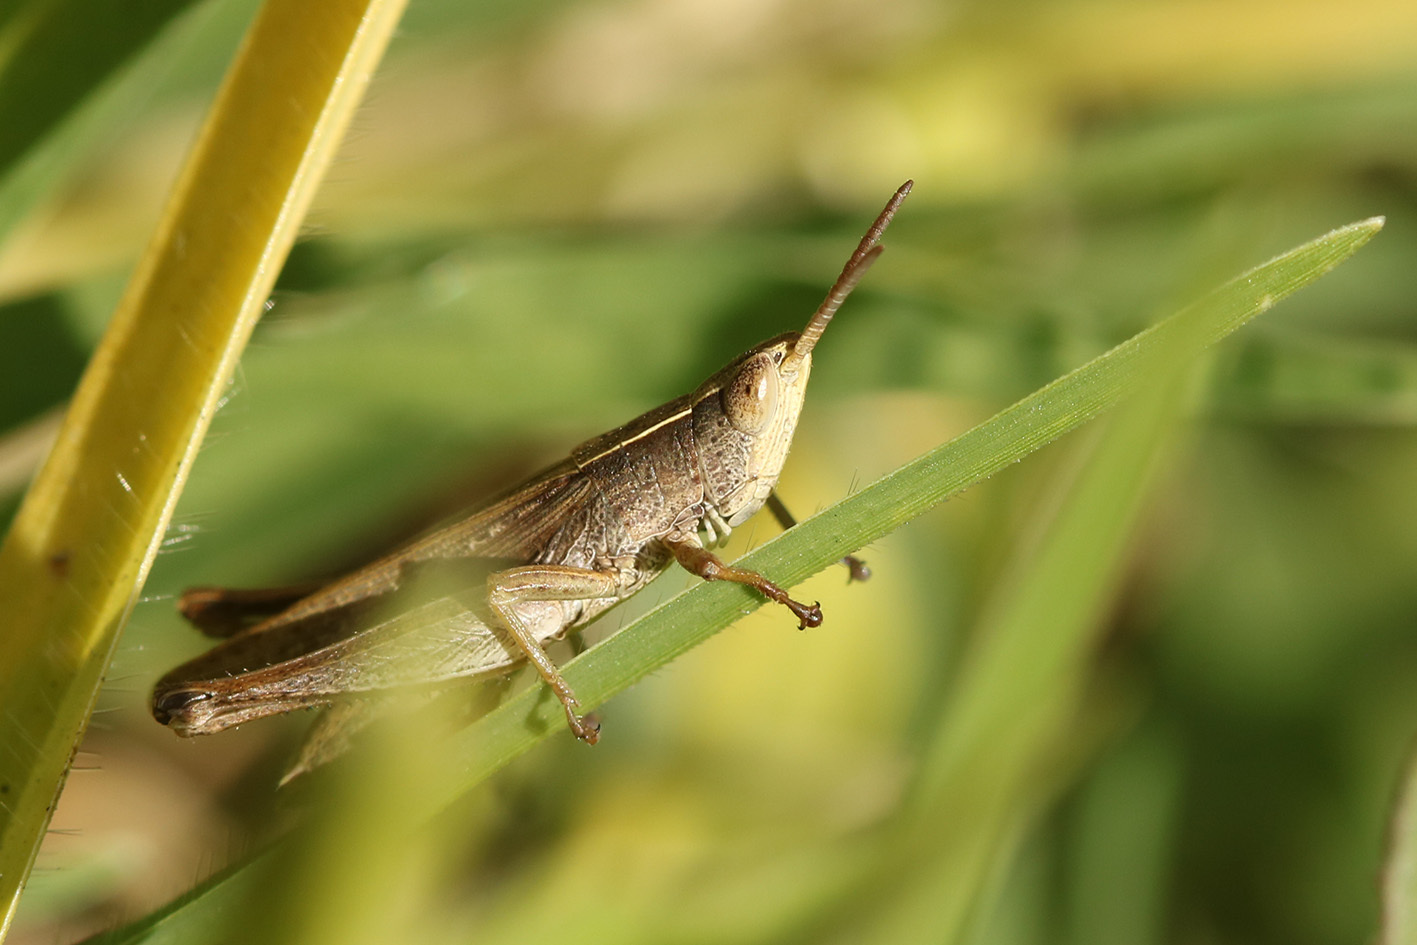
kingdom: Animalia
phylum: Arthropoda
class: Insecta
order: Orthoptera
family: Acrididae
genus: Laplatacris
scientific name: Laplatacris dispar
